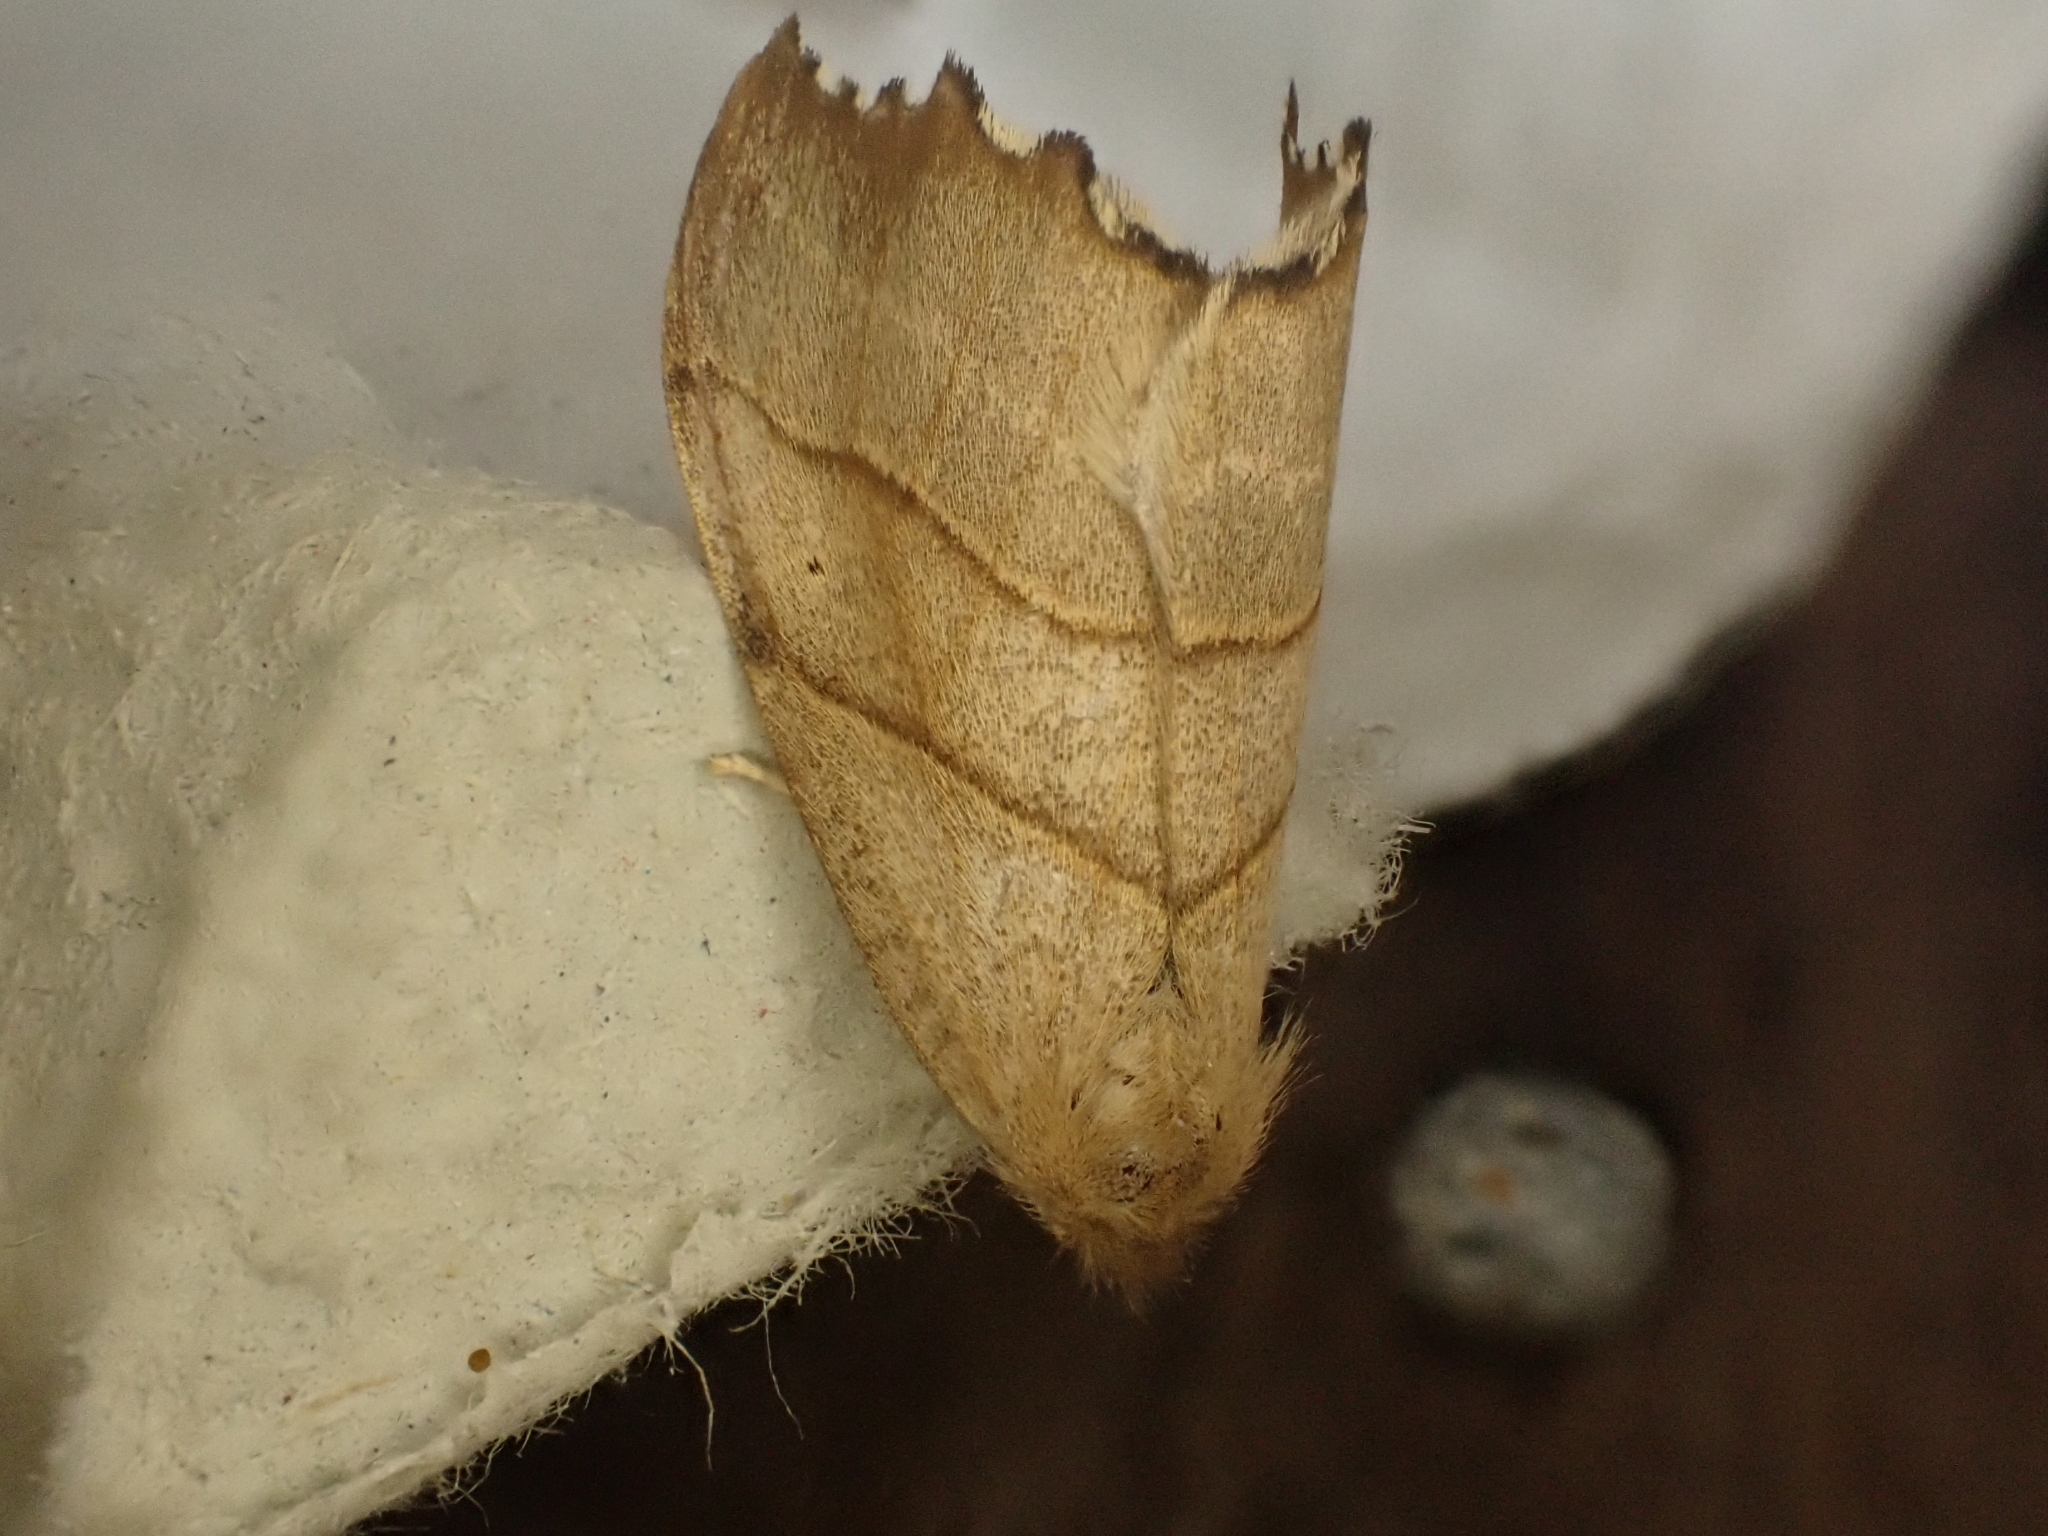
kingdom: Animalia
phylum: Arthropoda
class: Insecta
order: Lepidoptera
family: Drepanidae
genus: Falcaria
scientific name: Falcaria lacertinaria
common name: Scalloped hook-tip
